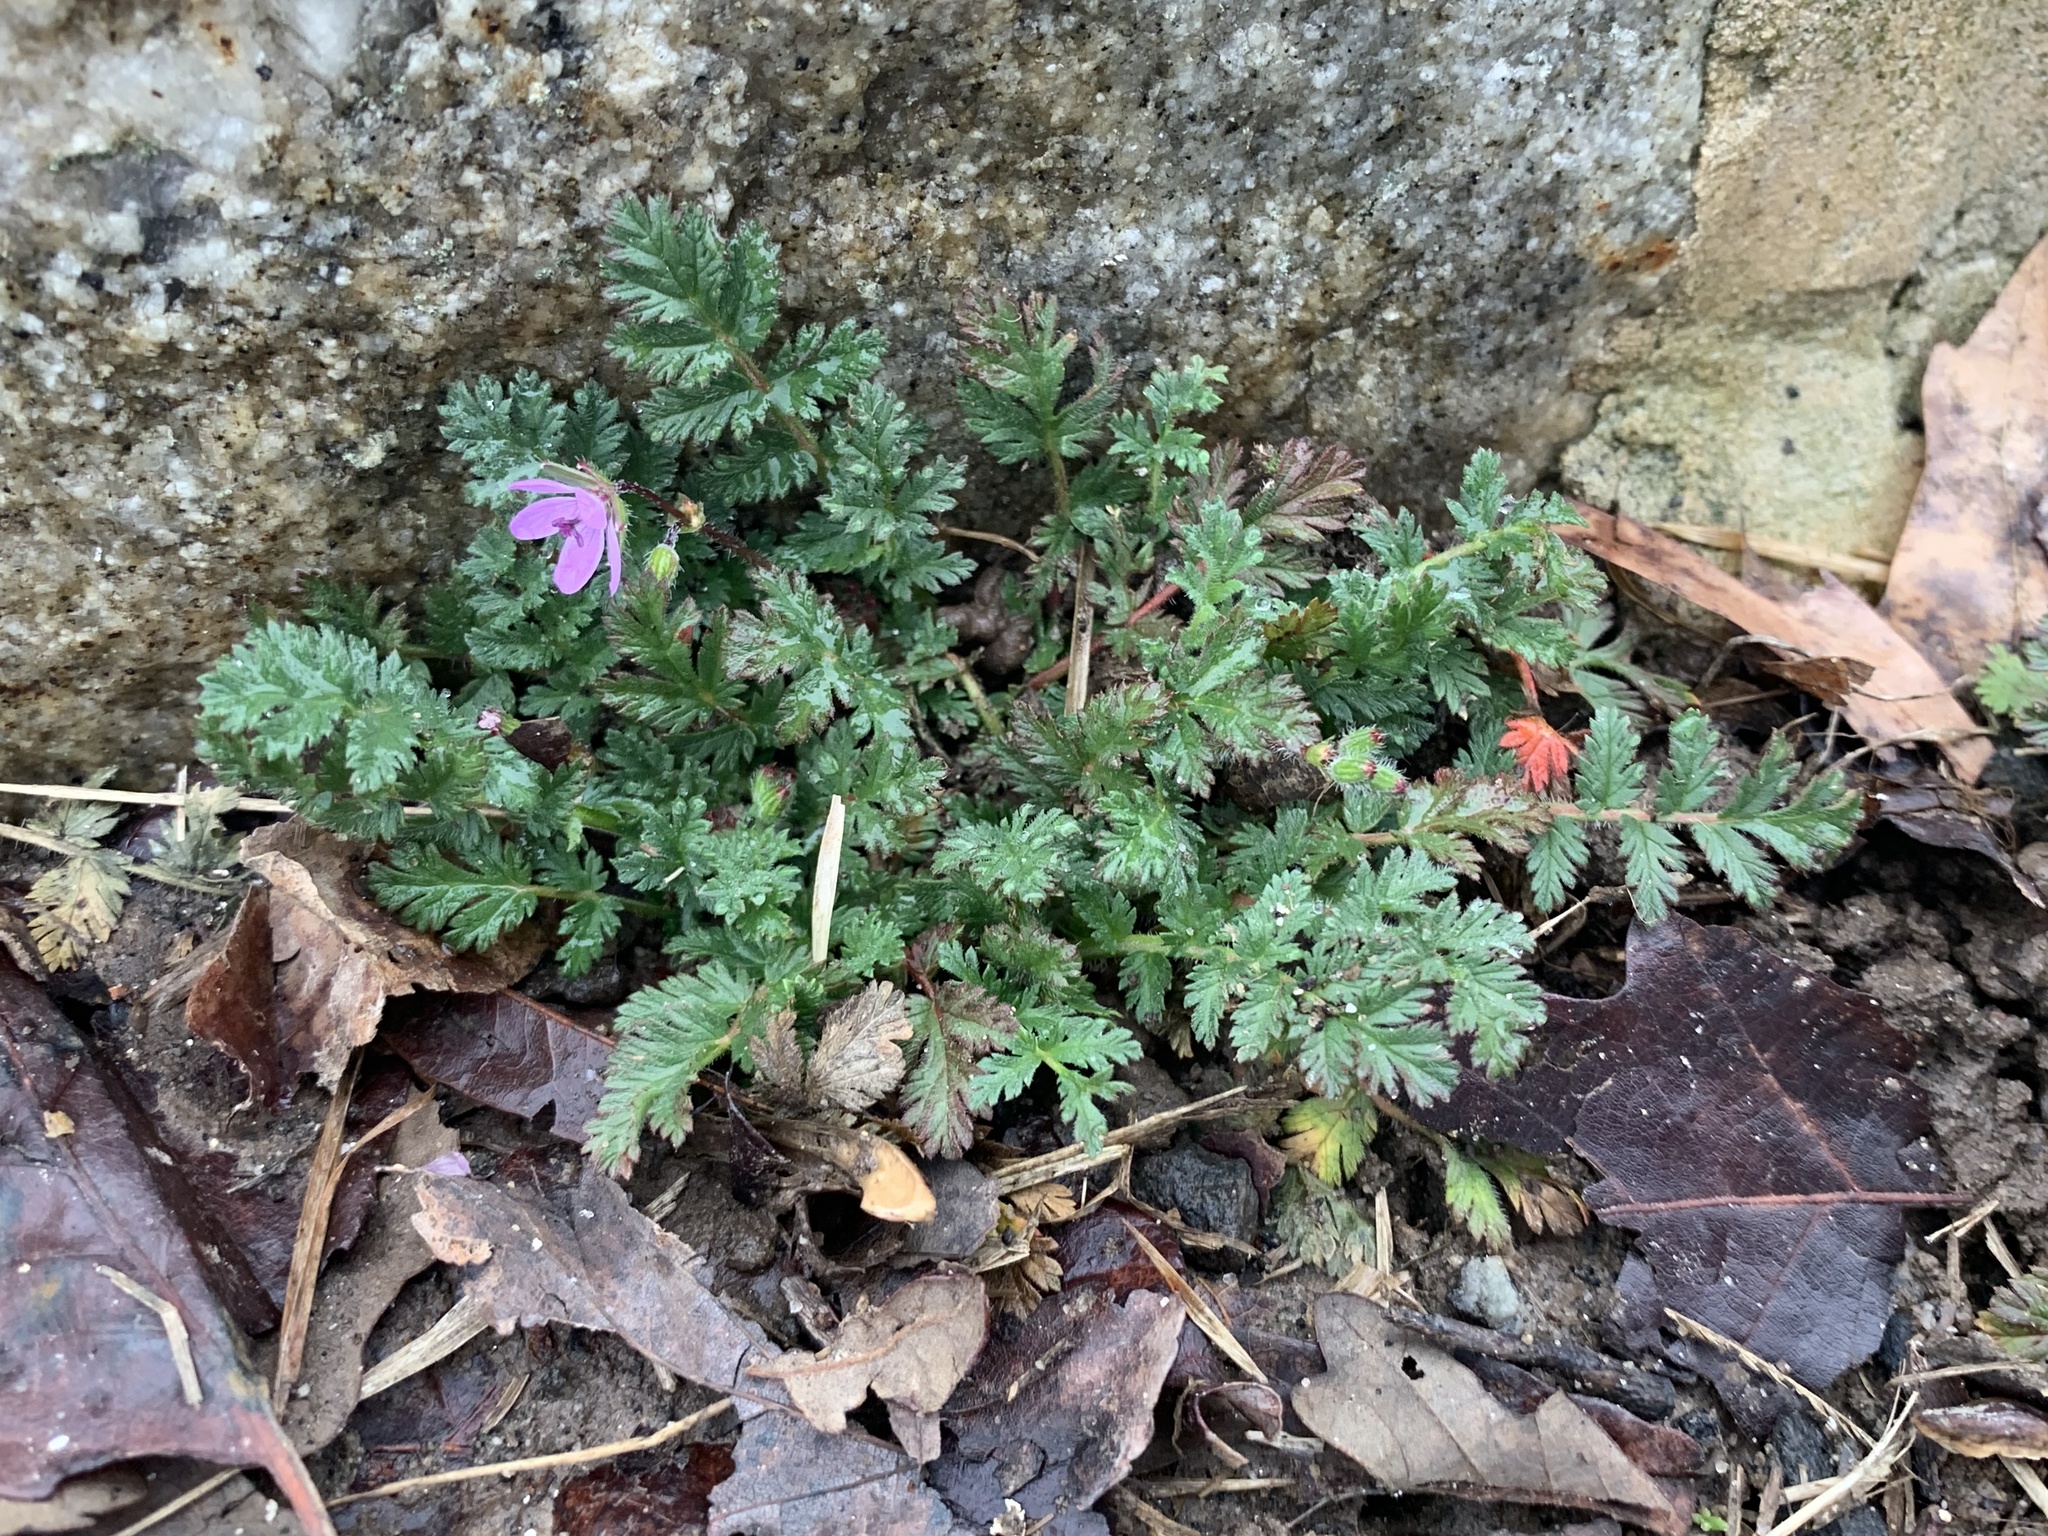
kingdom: Plantae
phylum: Tracheophyta
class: Magnoliopsida
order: Geraniales
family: Geraniaceae
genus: Erodium
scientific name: Erodium cicutarium
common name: Common stork's-bill
